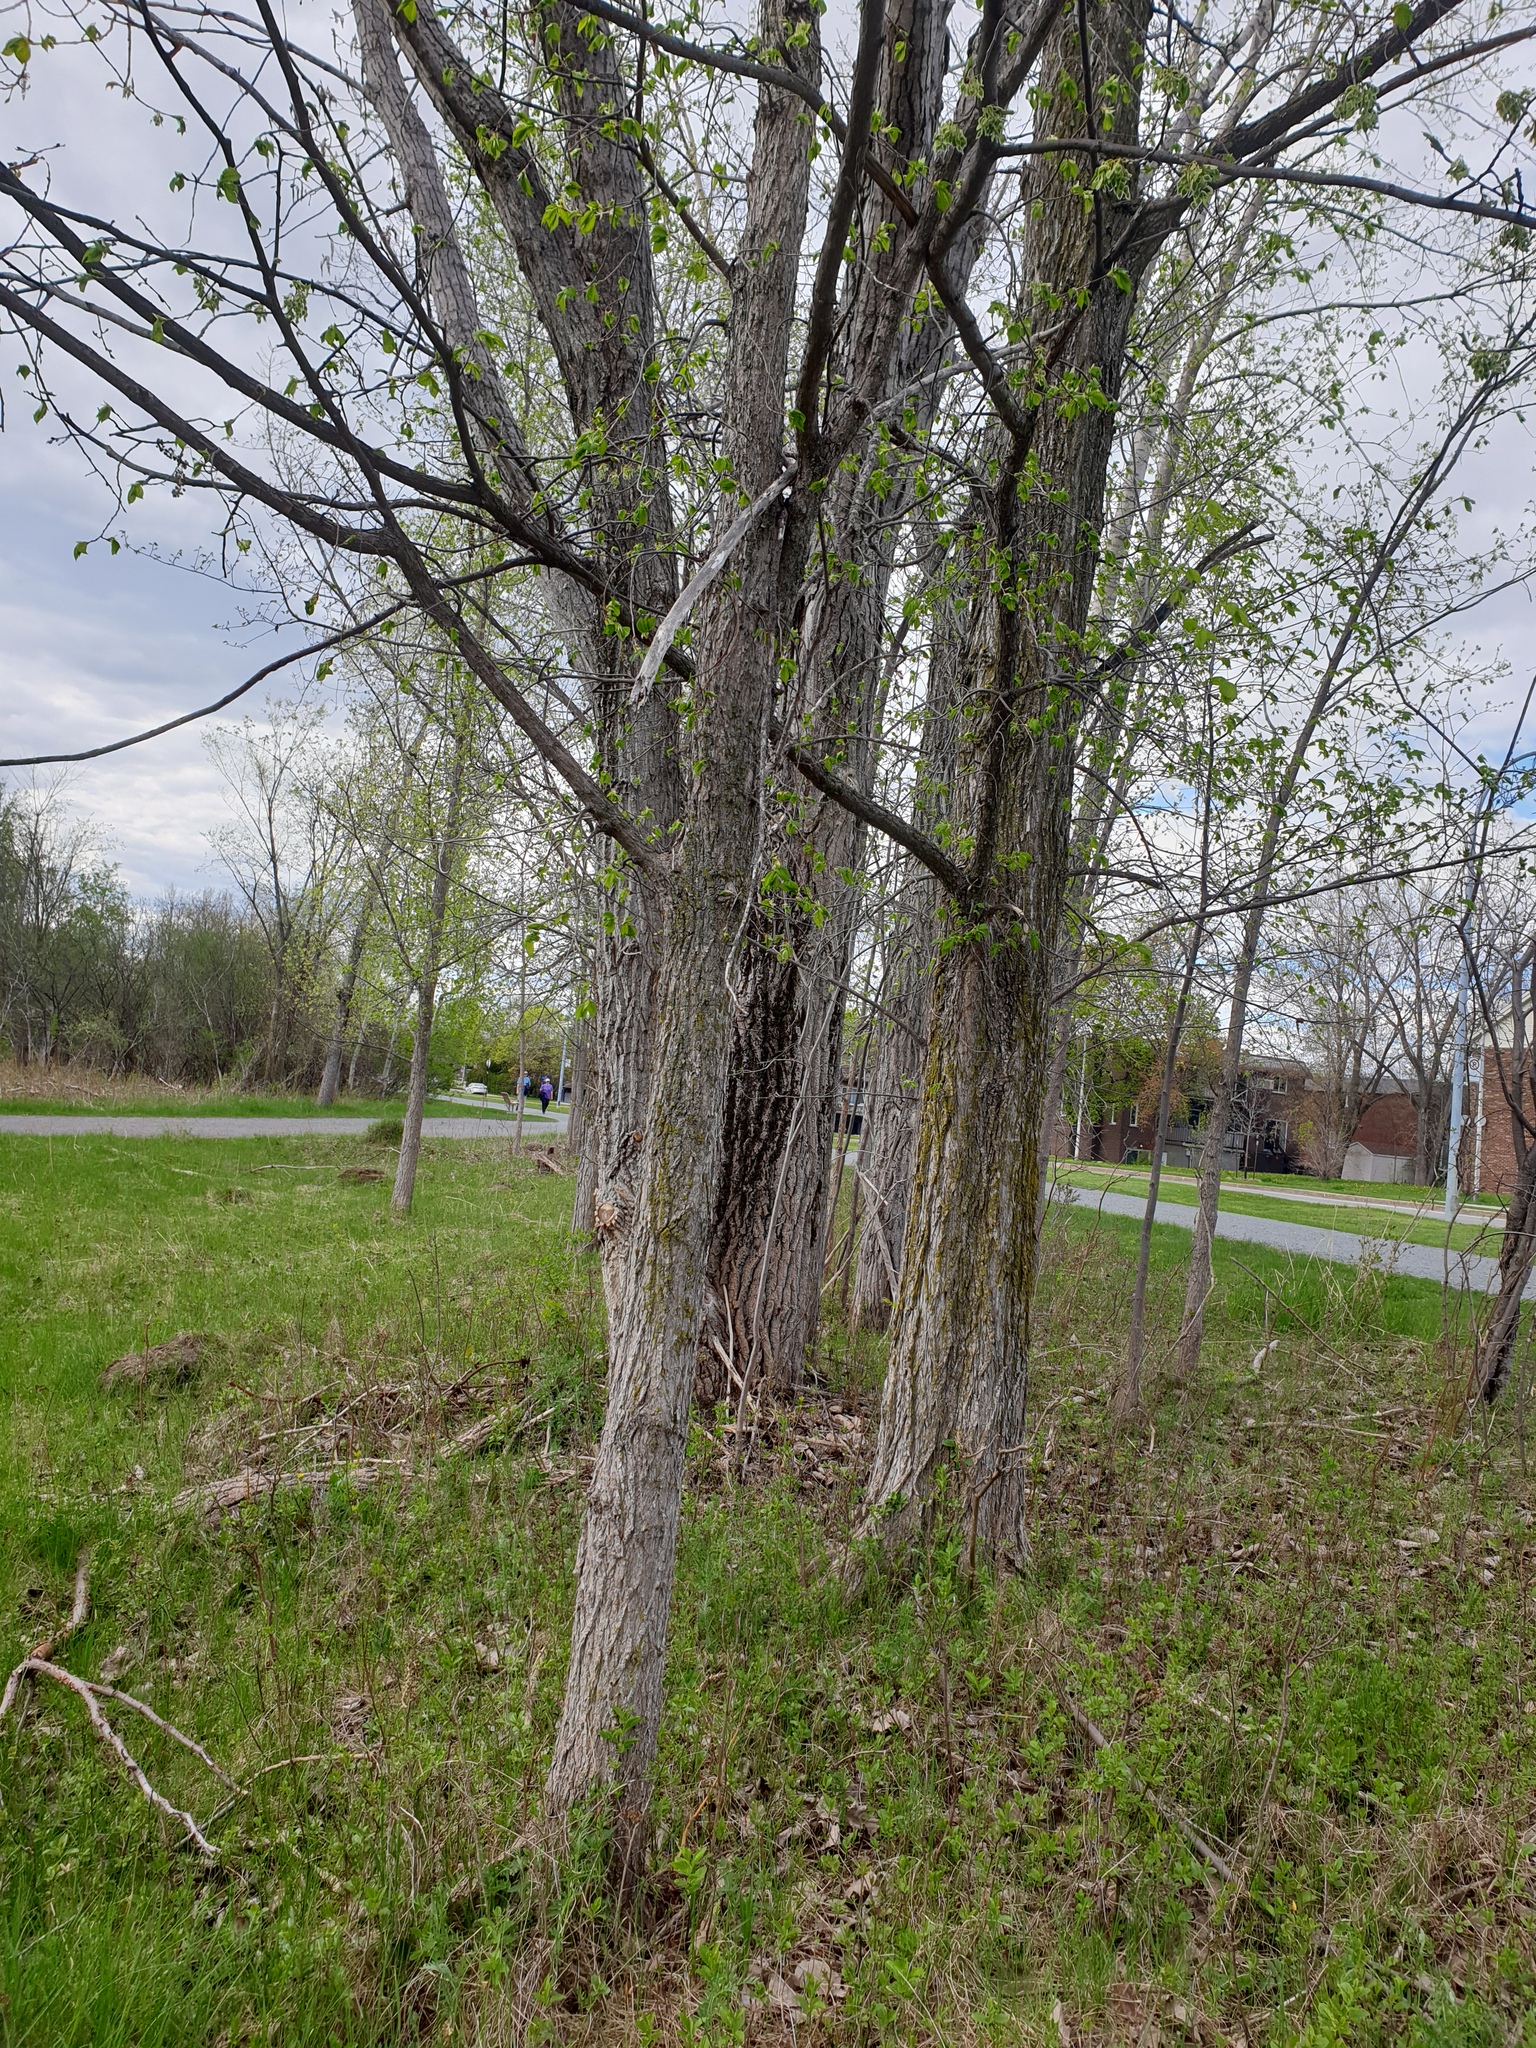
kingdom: Plantae
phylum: Tracheophyta
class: Magnoliopsida
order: Rosales
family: Ulmaceae
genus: Ulmus
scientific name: Ulmus americana
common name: American elm
